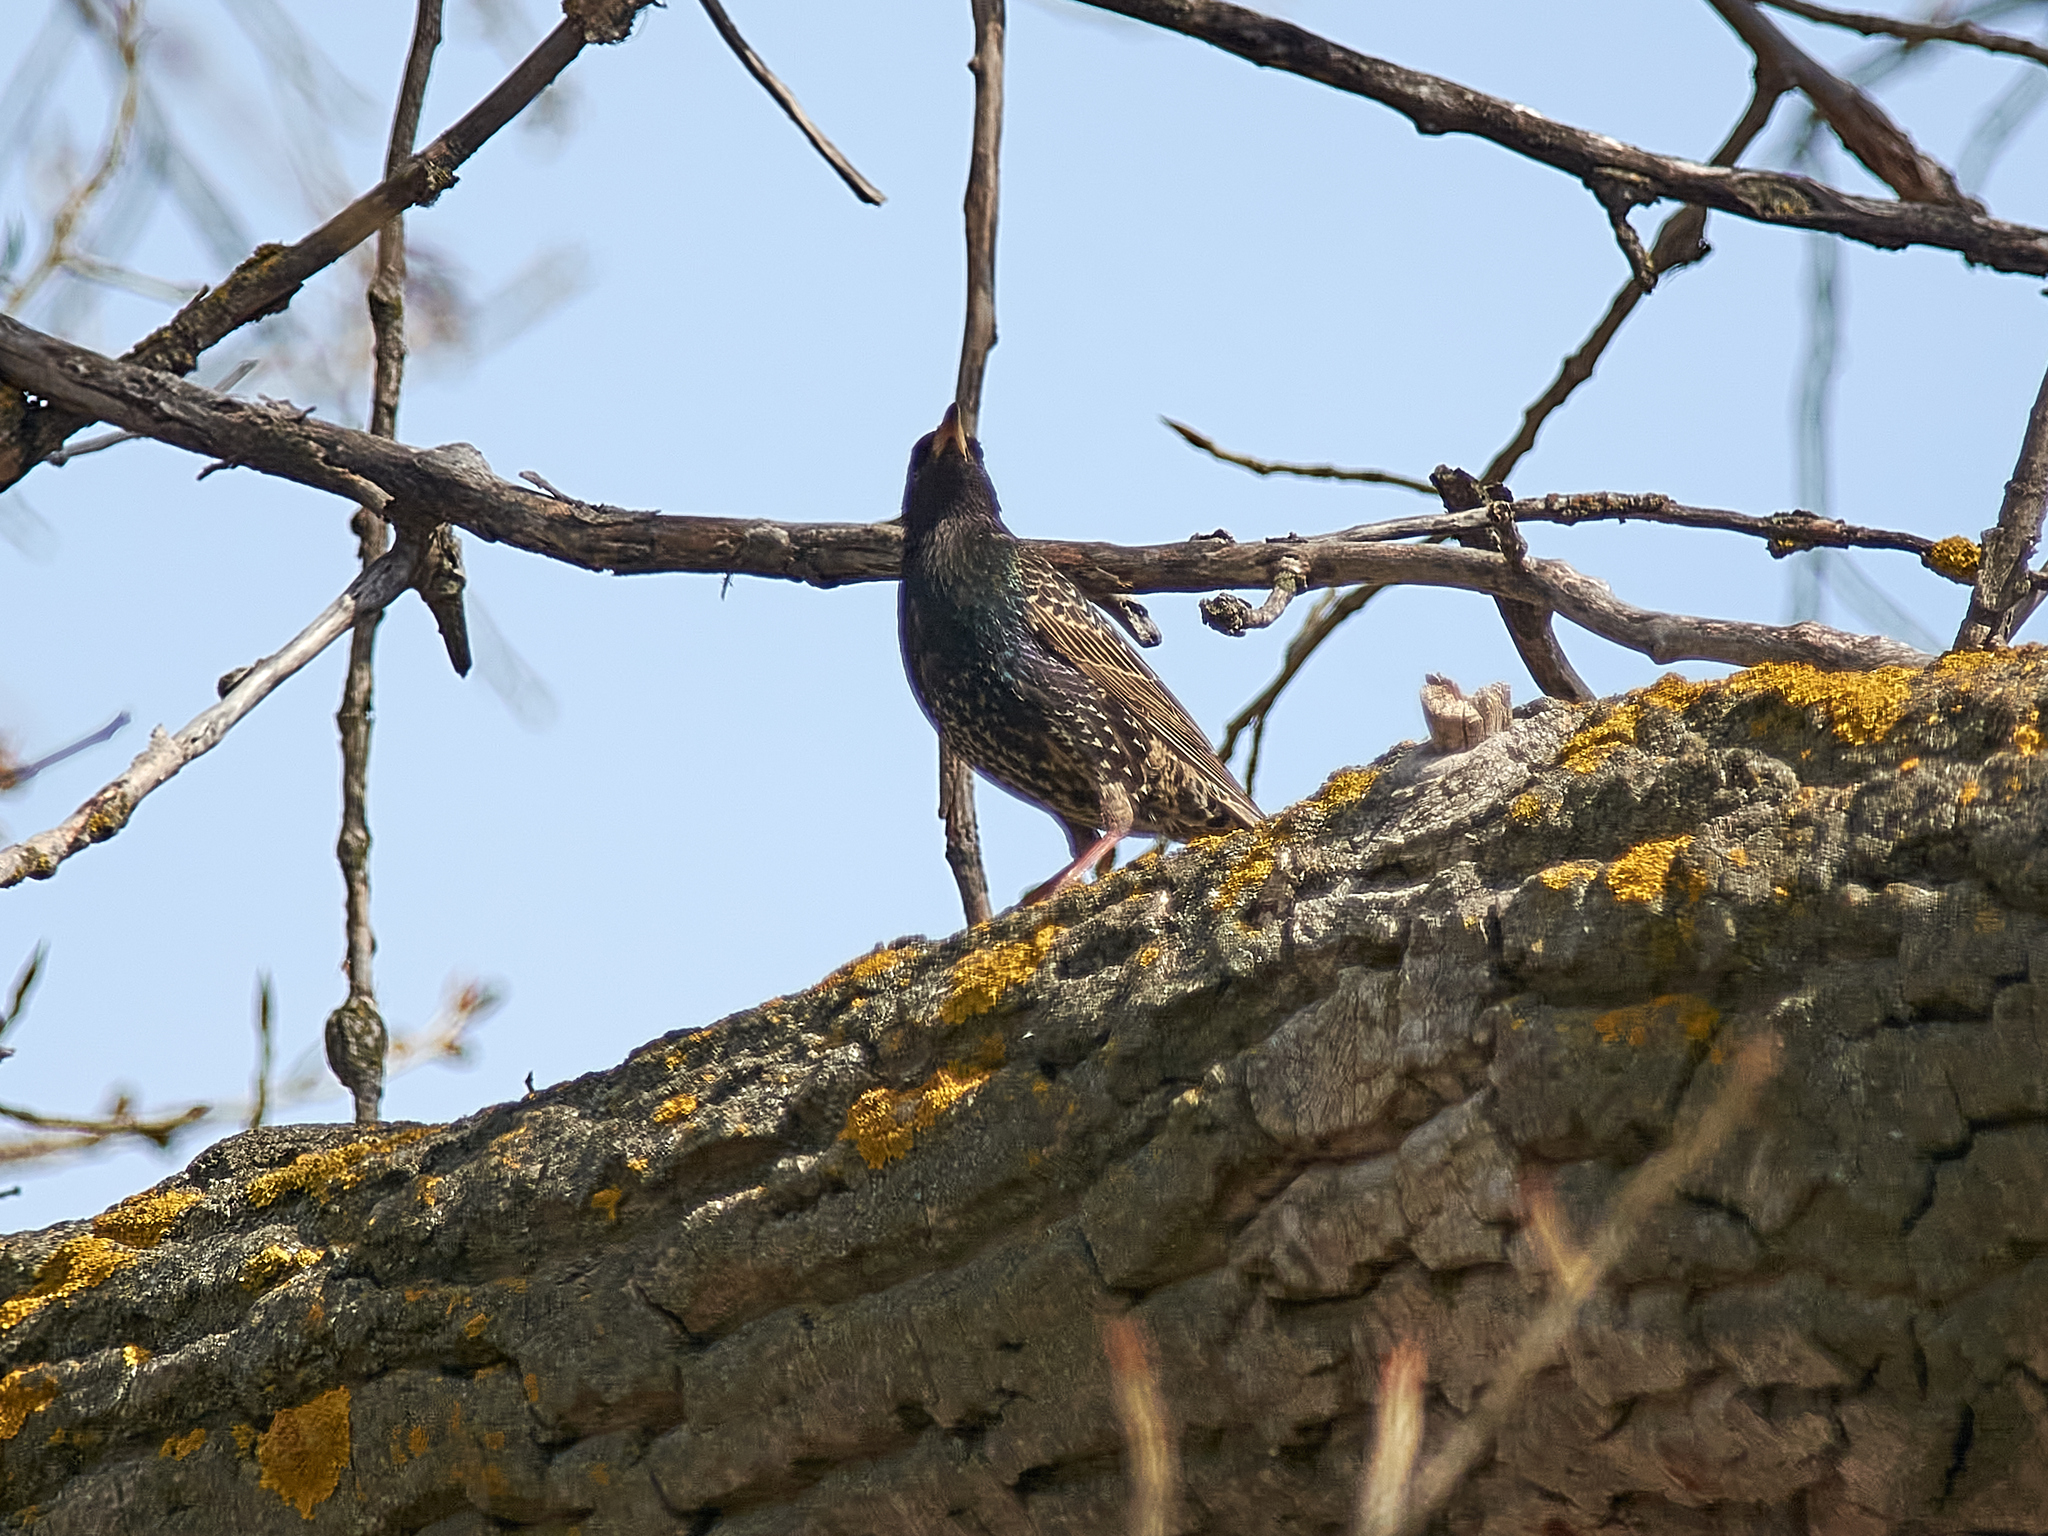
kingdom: Animalia
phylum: Chordata
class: Aves
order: Passeriformes
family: Sturnidae
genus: Sturnus
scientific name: Sturnus vulgaris
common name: Common starling
